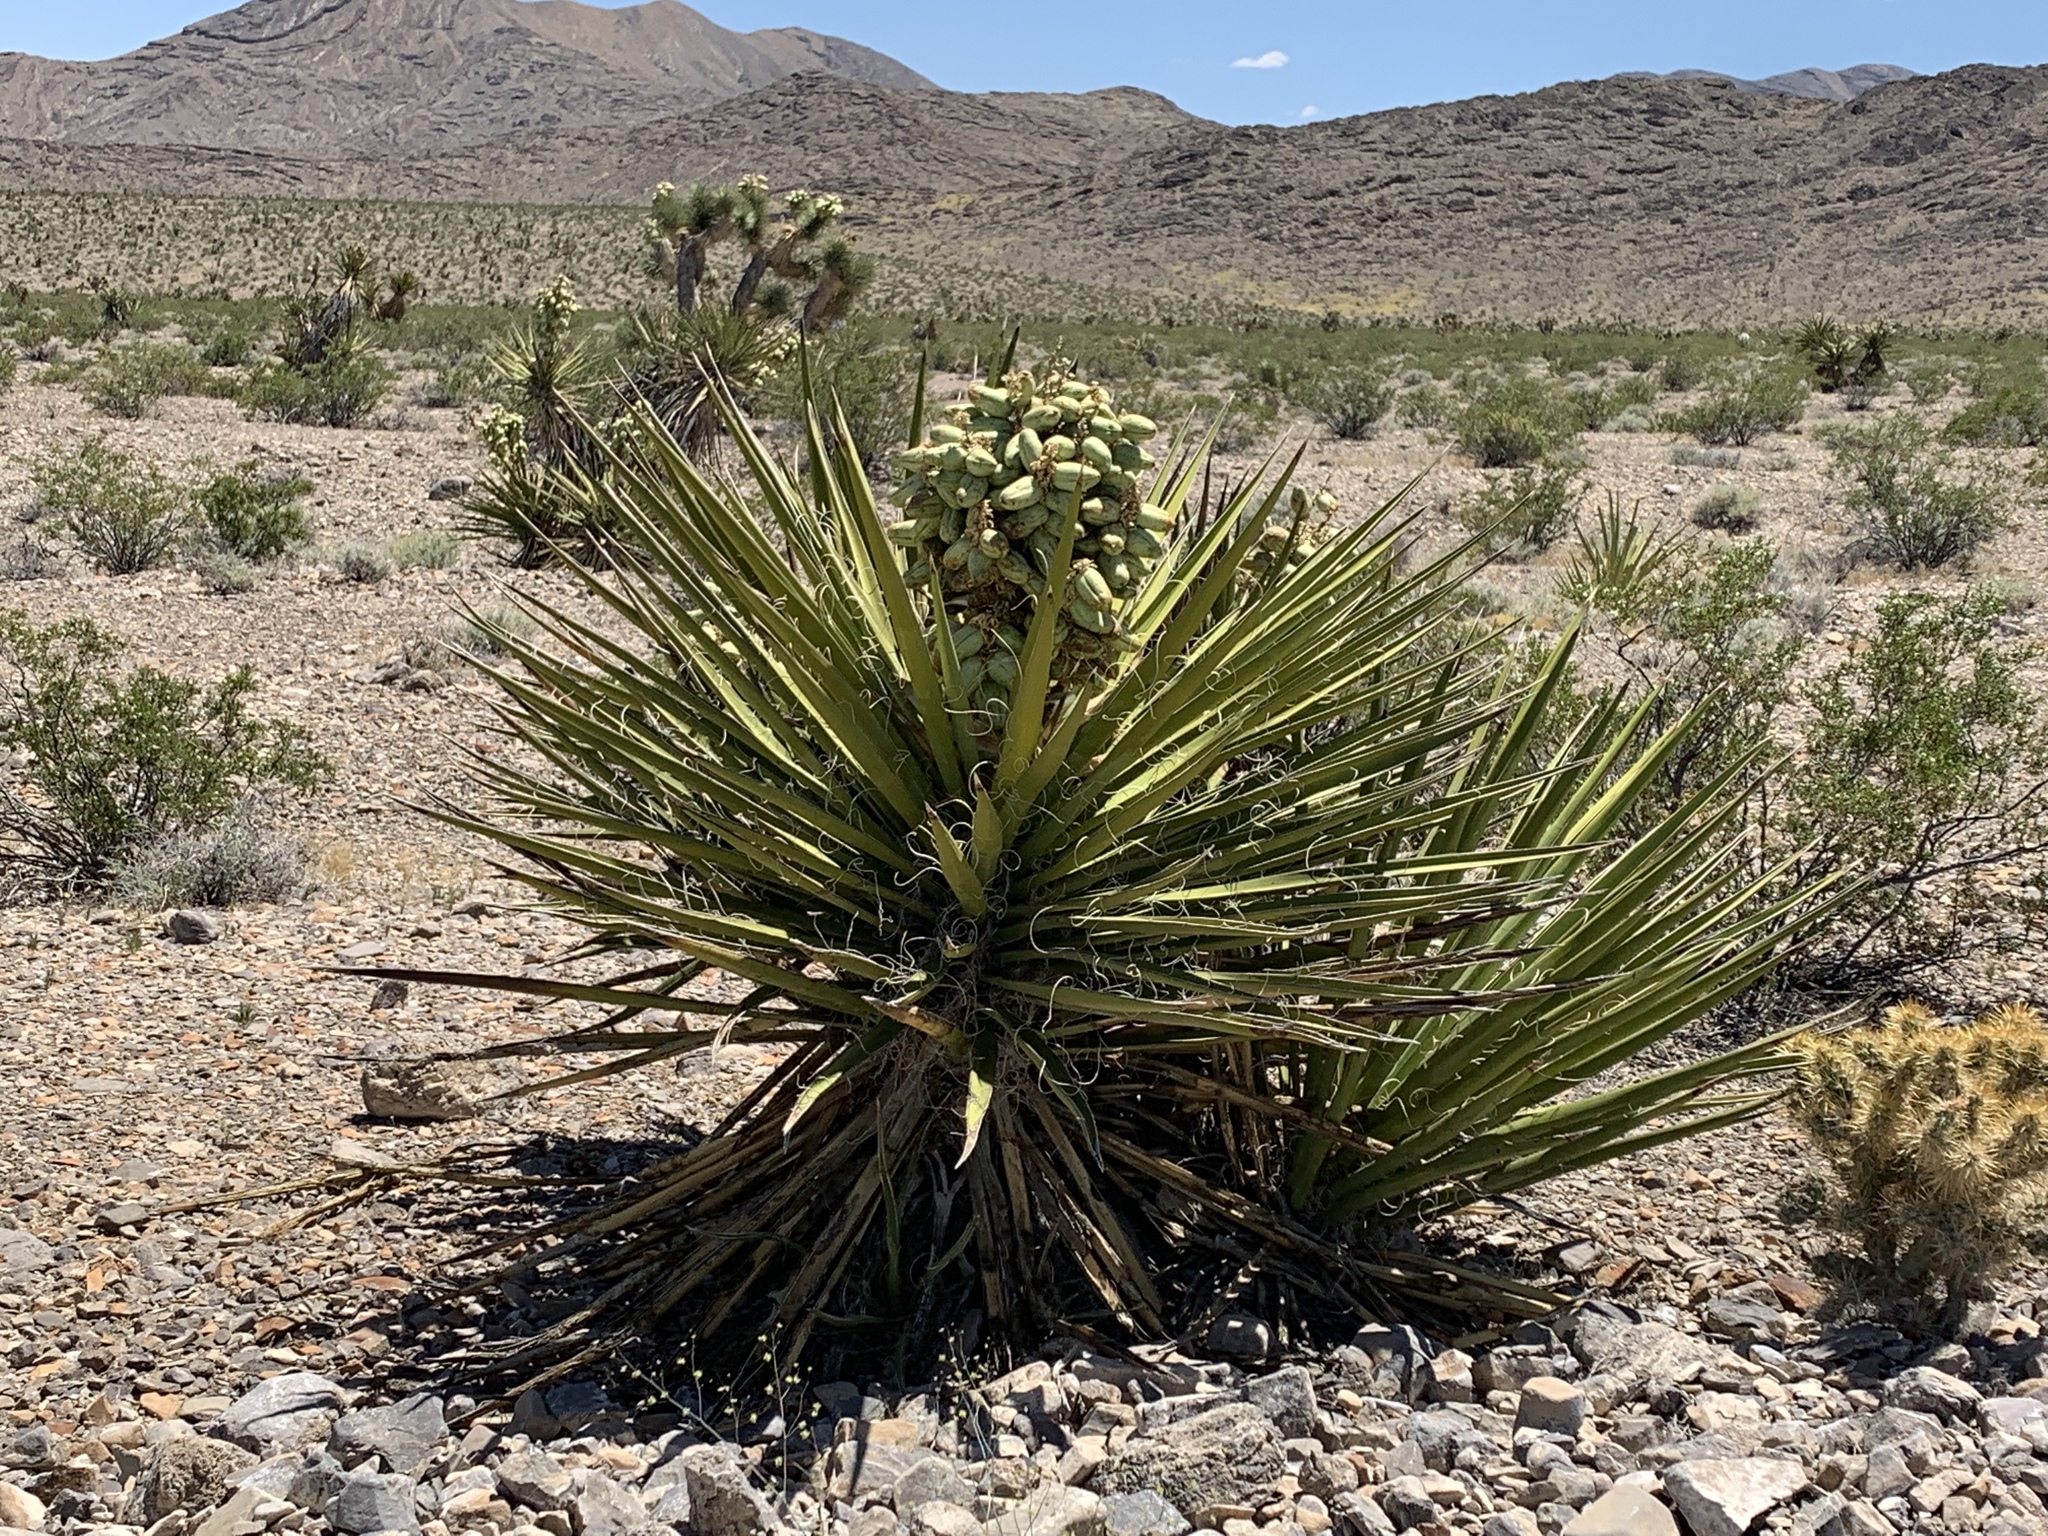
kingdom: Plantae
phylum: Tracheophyta
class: Liliopsida
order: Asparagales
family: Asparagaceae
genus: Yucca
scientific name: Yucca schidigera
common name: Mojave yucca
